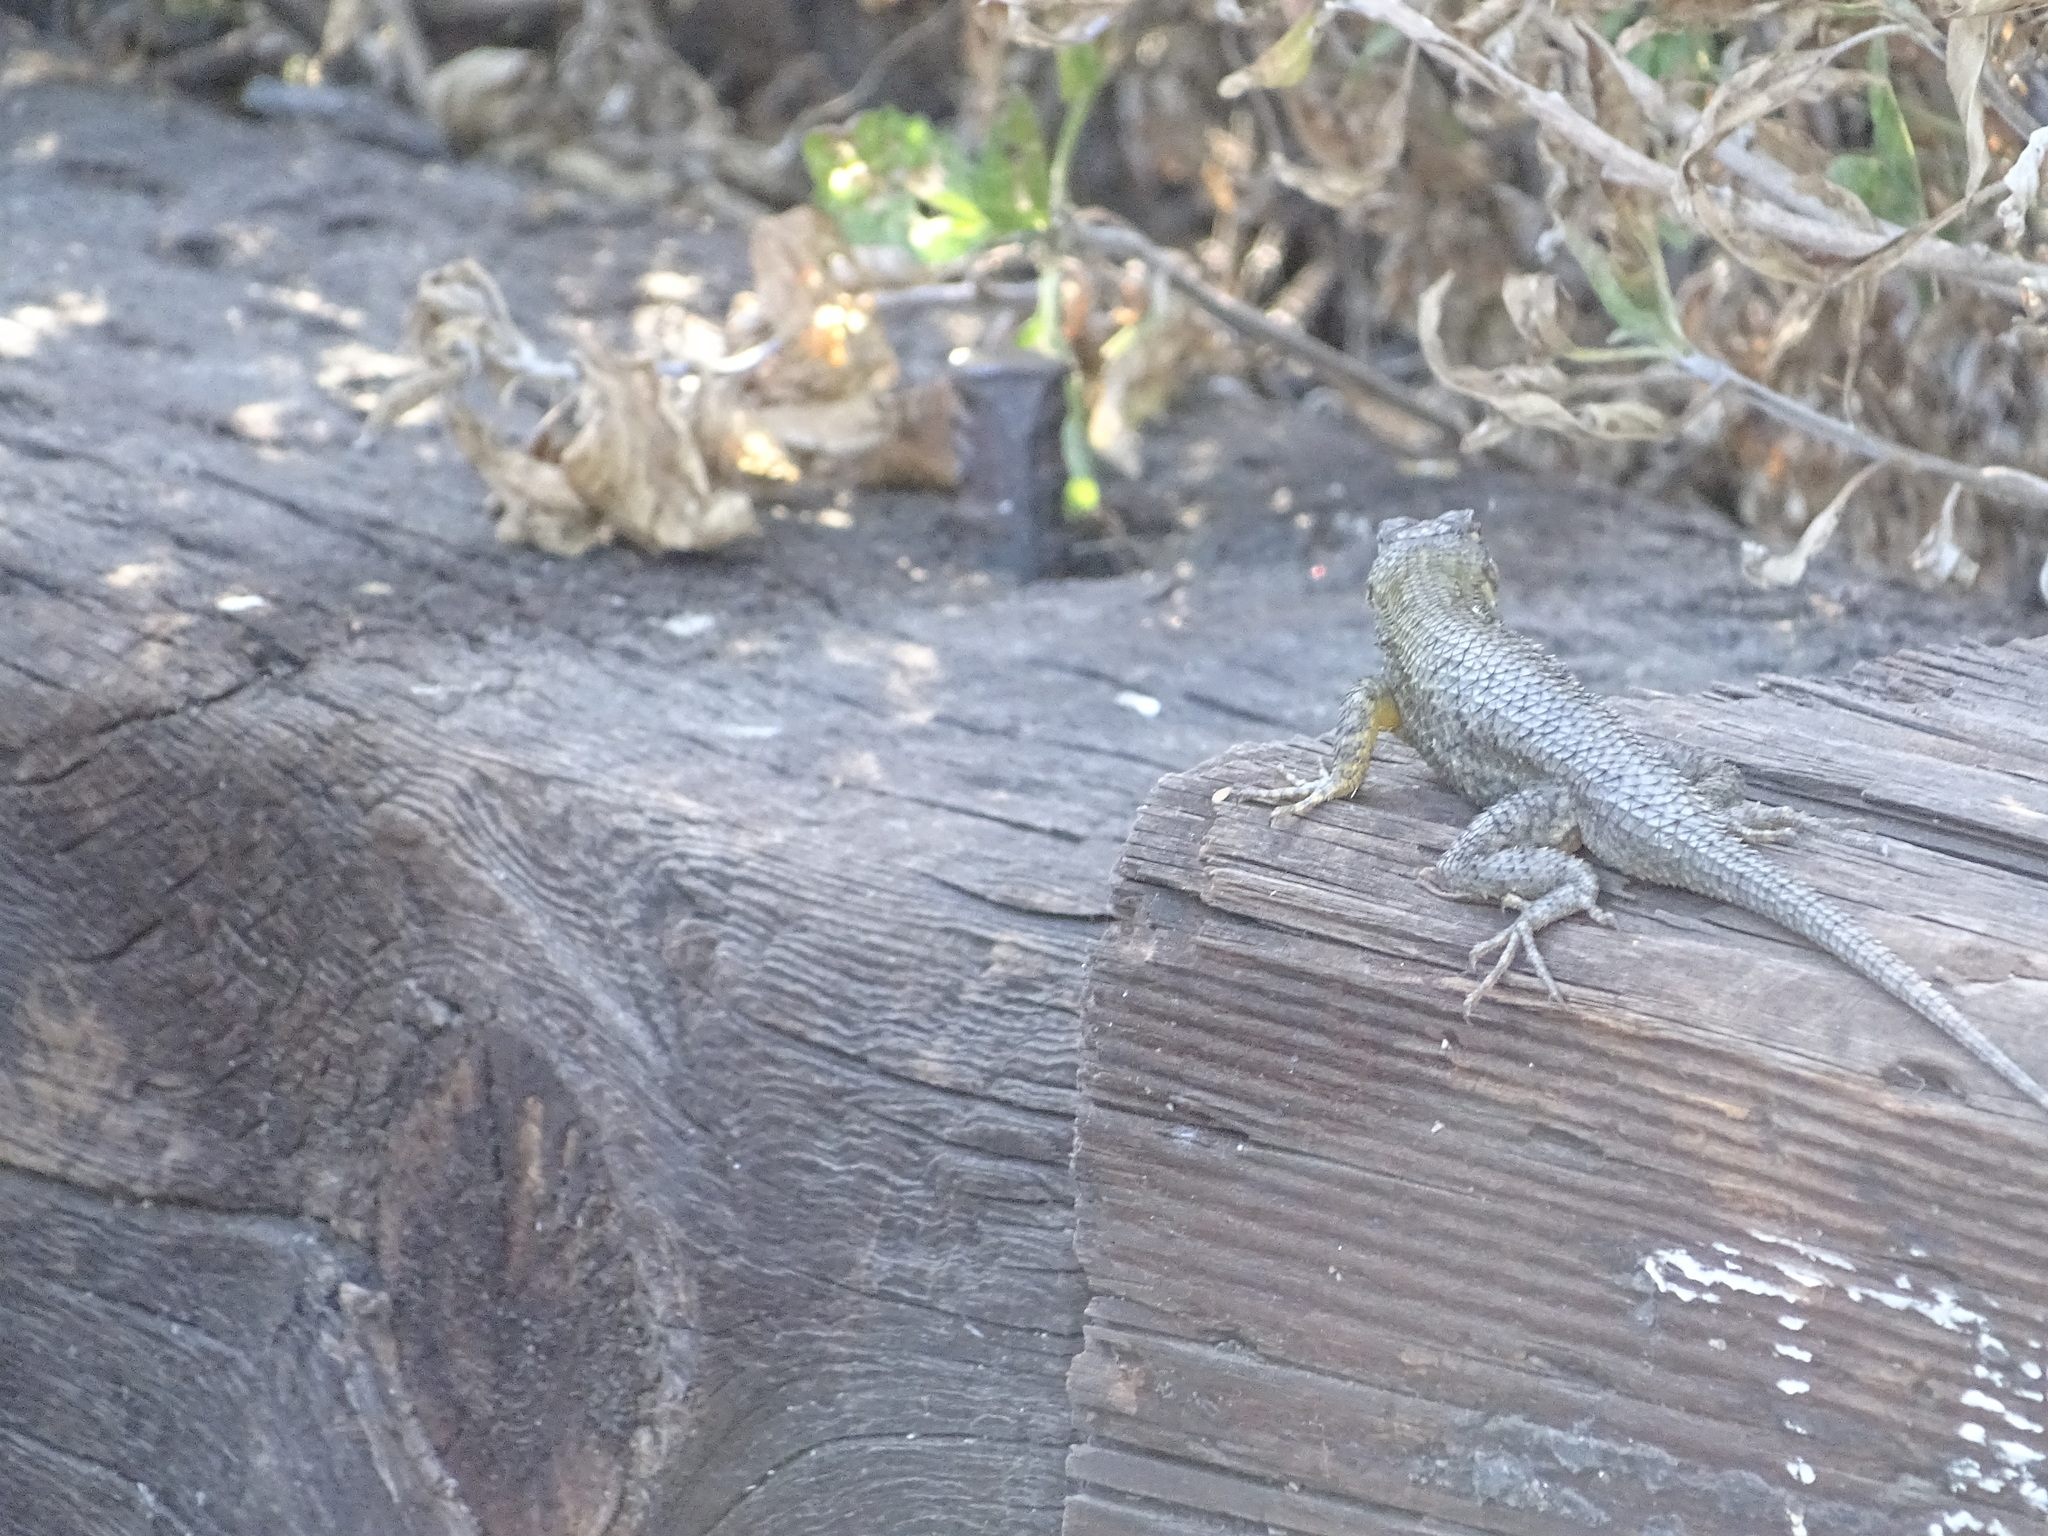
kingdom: Animalia
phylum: Chordata
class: Squamata
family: Phrynosomatidae
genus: Sceloporus
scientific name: Sceloporus occidentalis
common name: Western fence lizard
